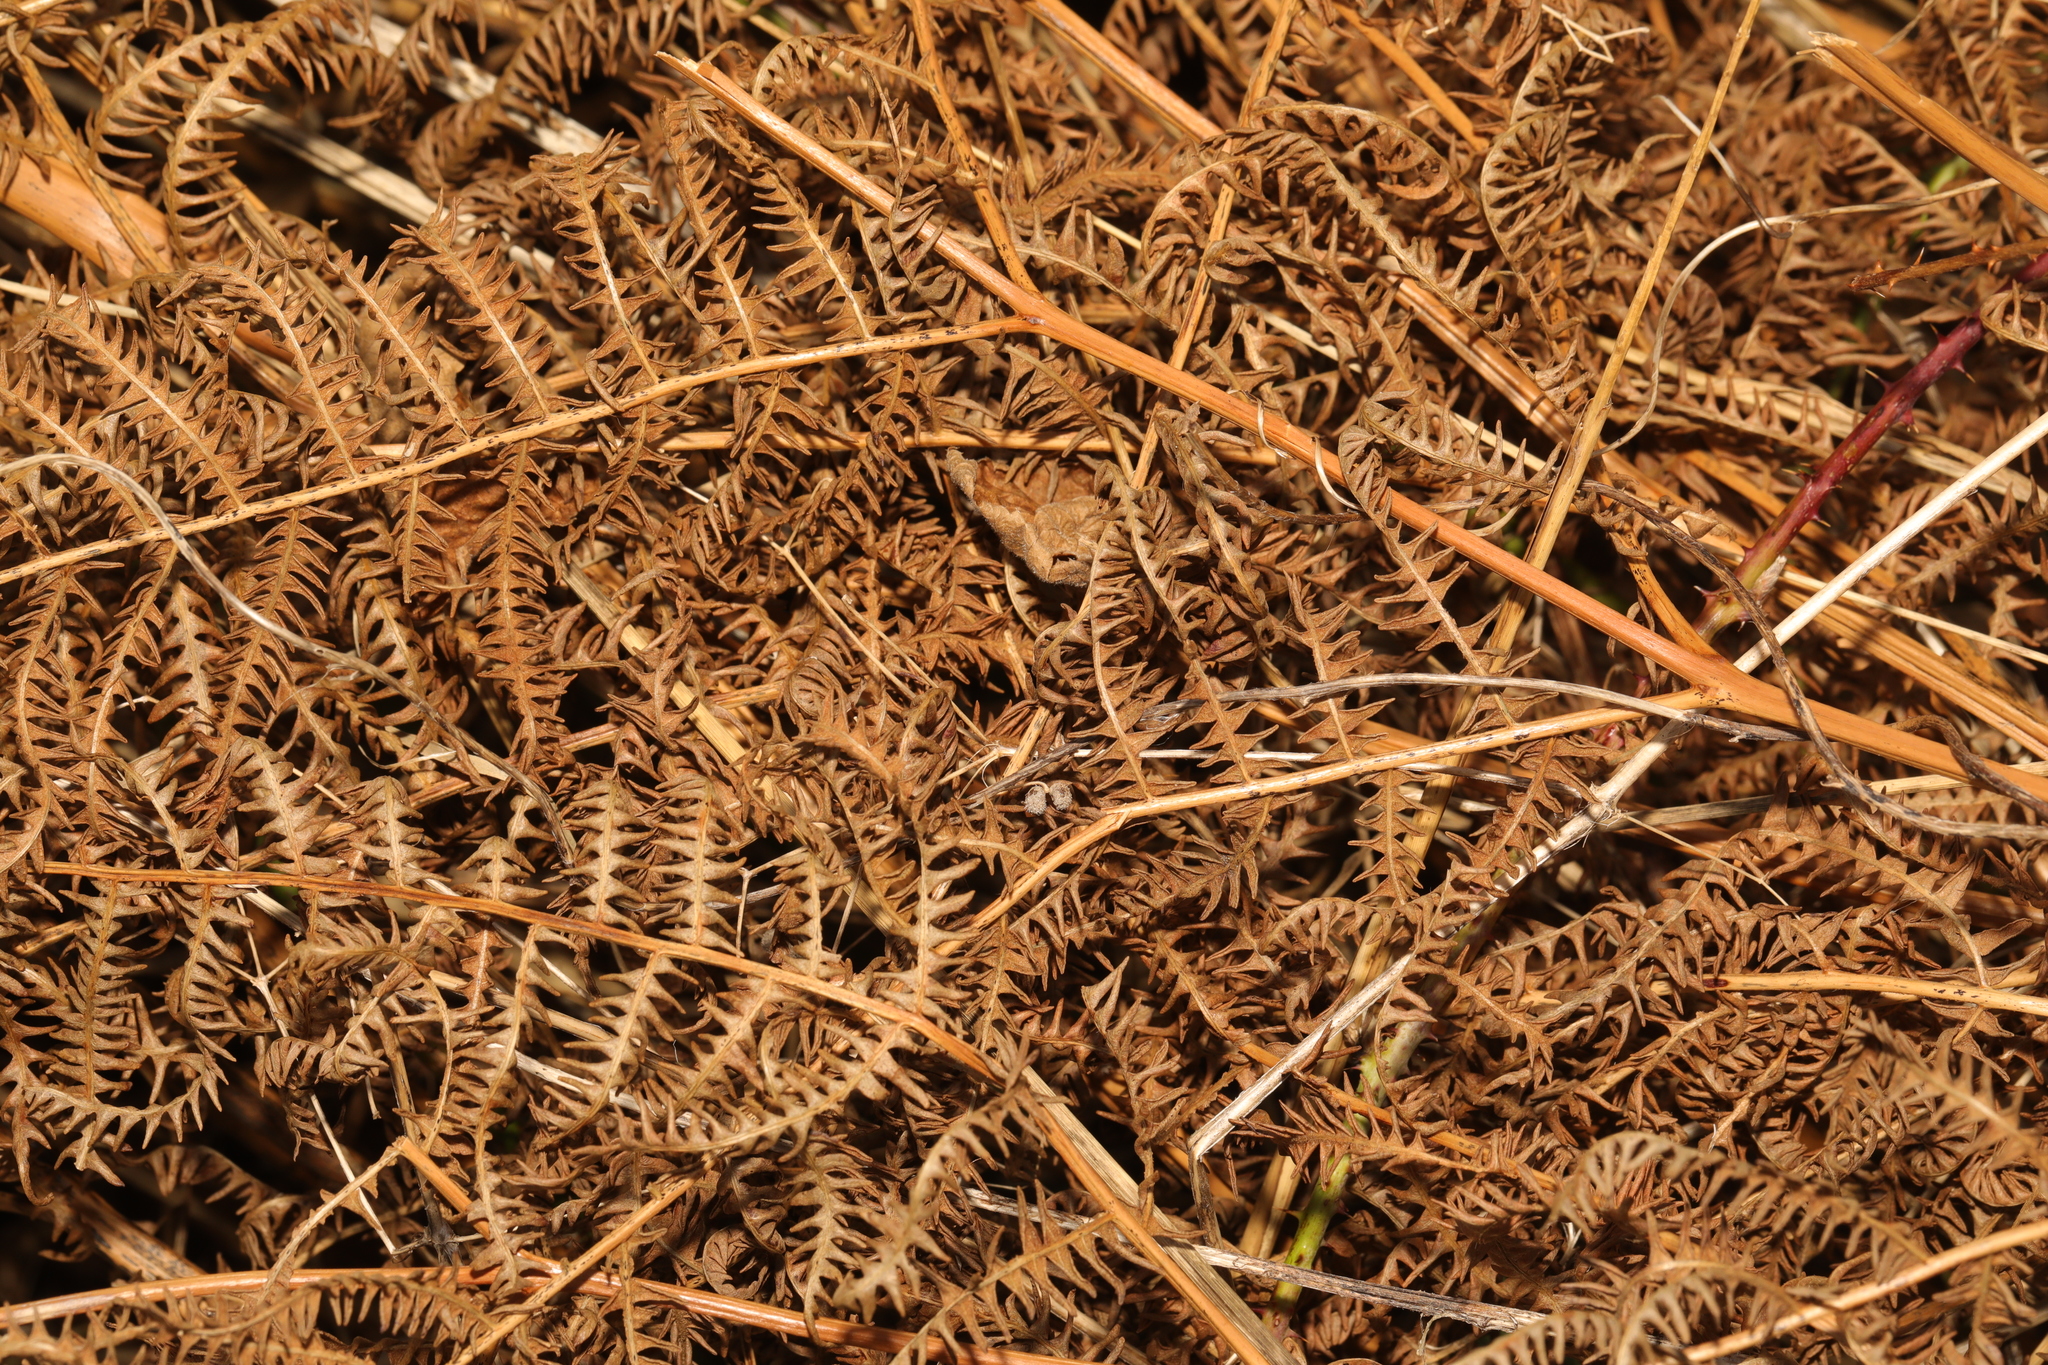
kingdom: Plantae
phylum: Tracheophyta
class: Polypodiopsida
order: Polypodiales
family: Dennstaedtiaceae
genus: Pteridium
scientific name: Pteridium aquilinum
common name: Bracken
